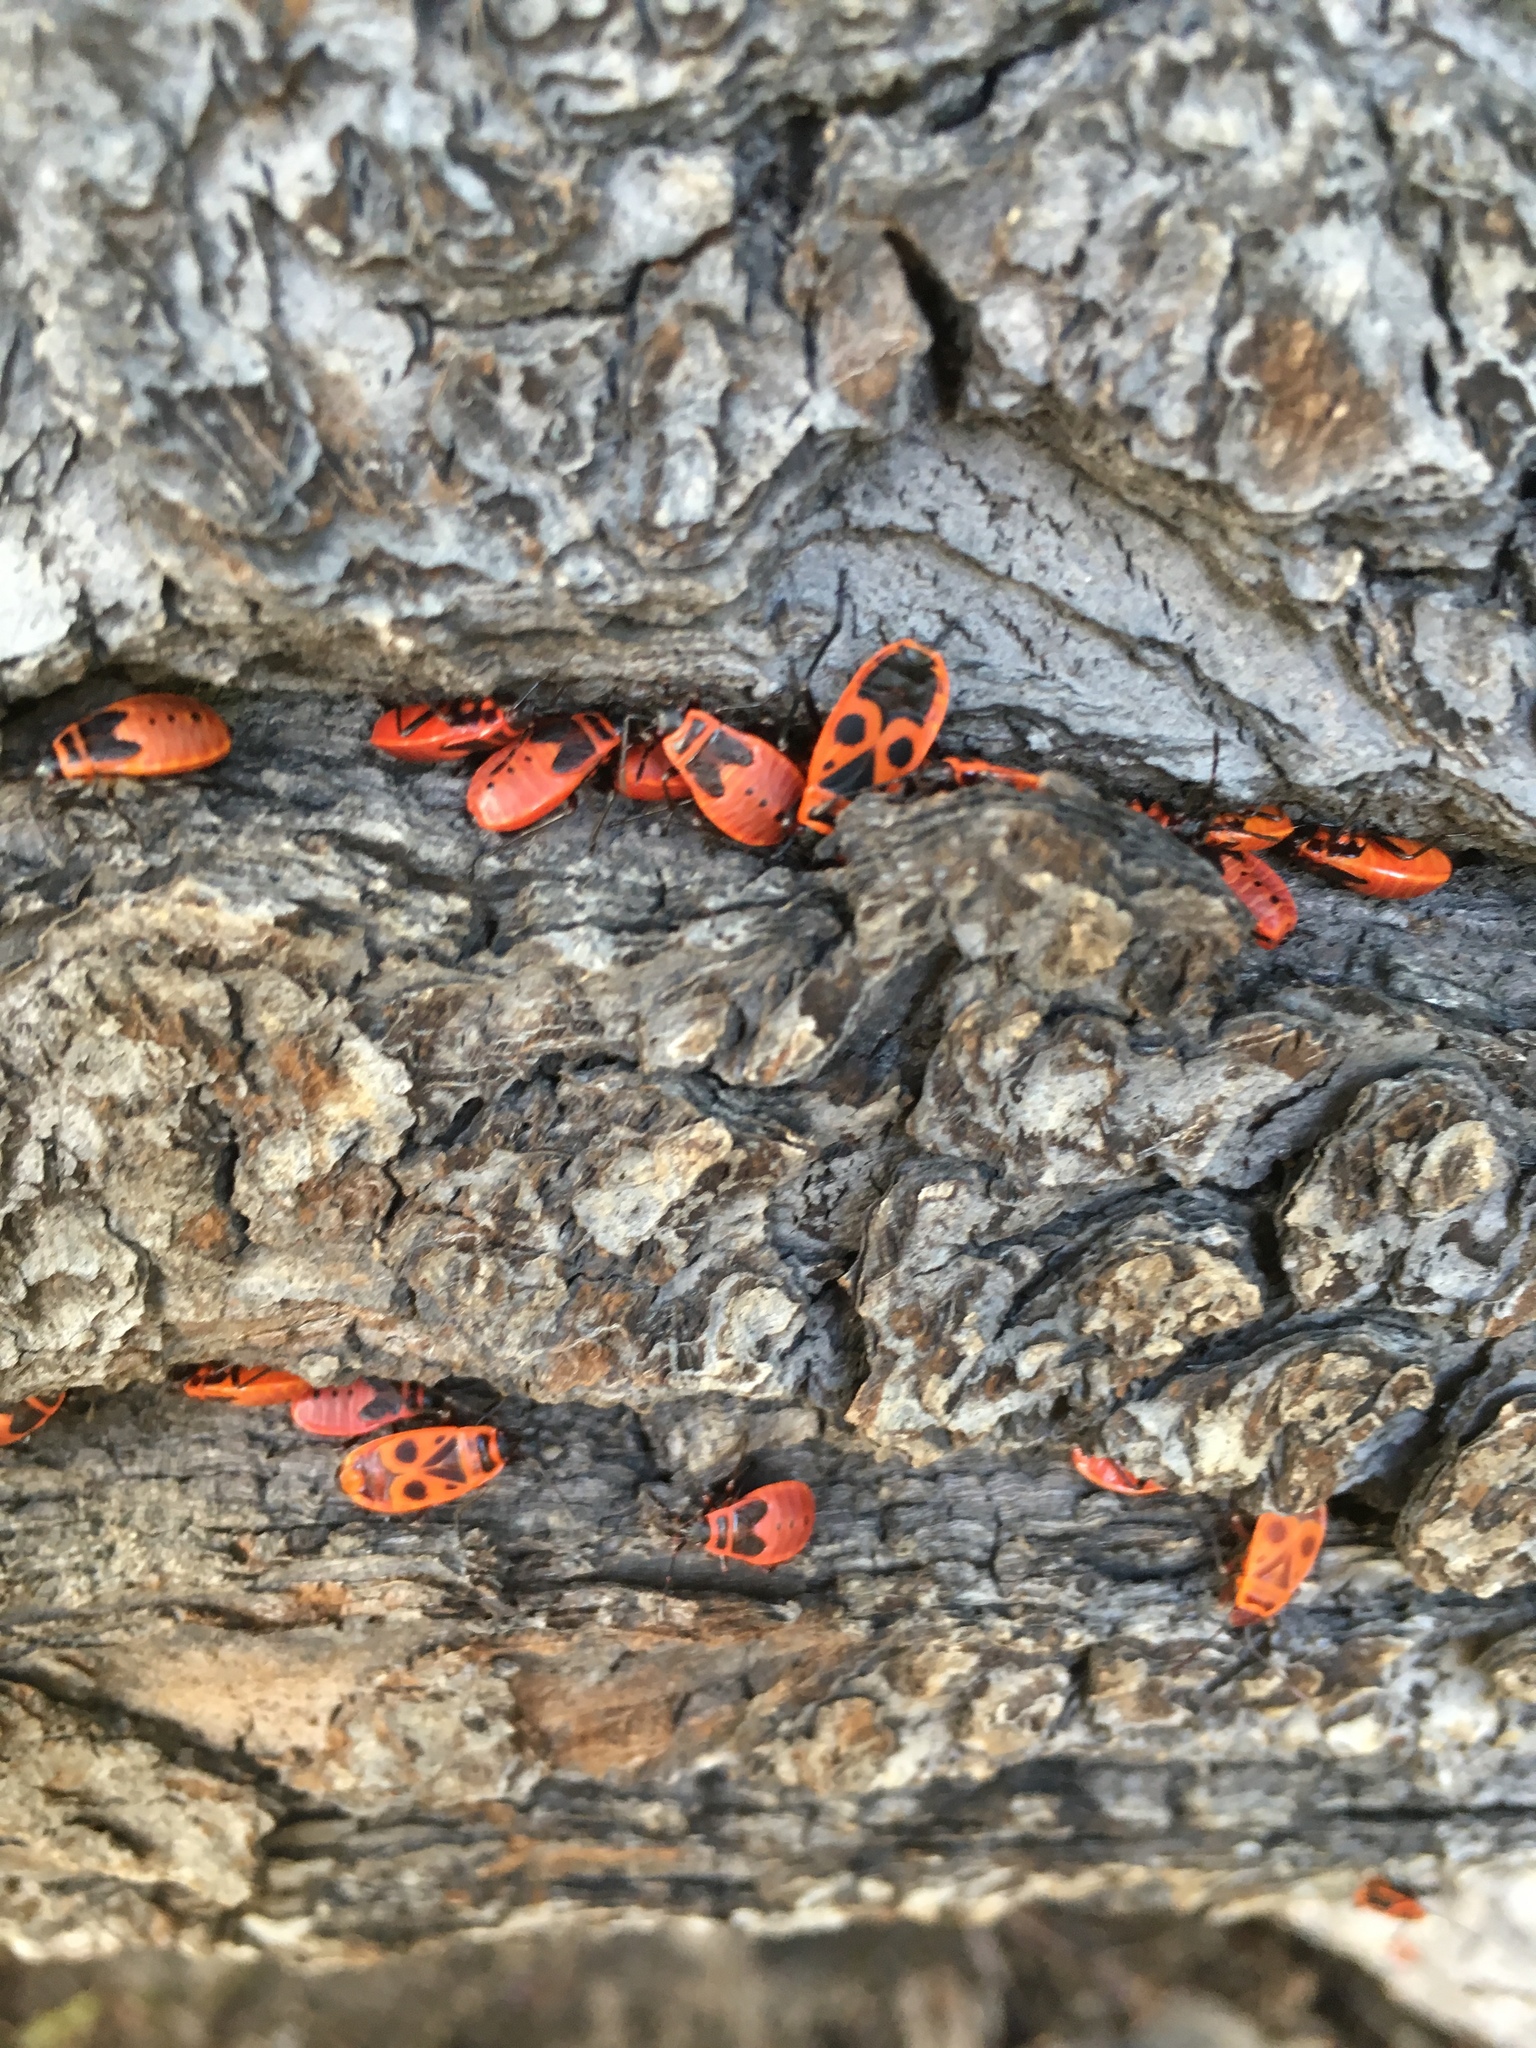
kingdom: Animalia
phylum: Arthropoda
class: Insecta
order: Hemiptera
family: Pyrrhocoridae
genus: Pyrrhocoris
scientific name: Pyrrhocoris apterus
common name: Firebug
